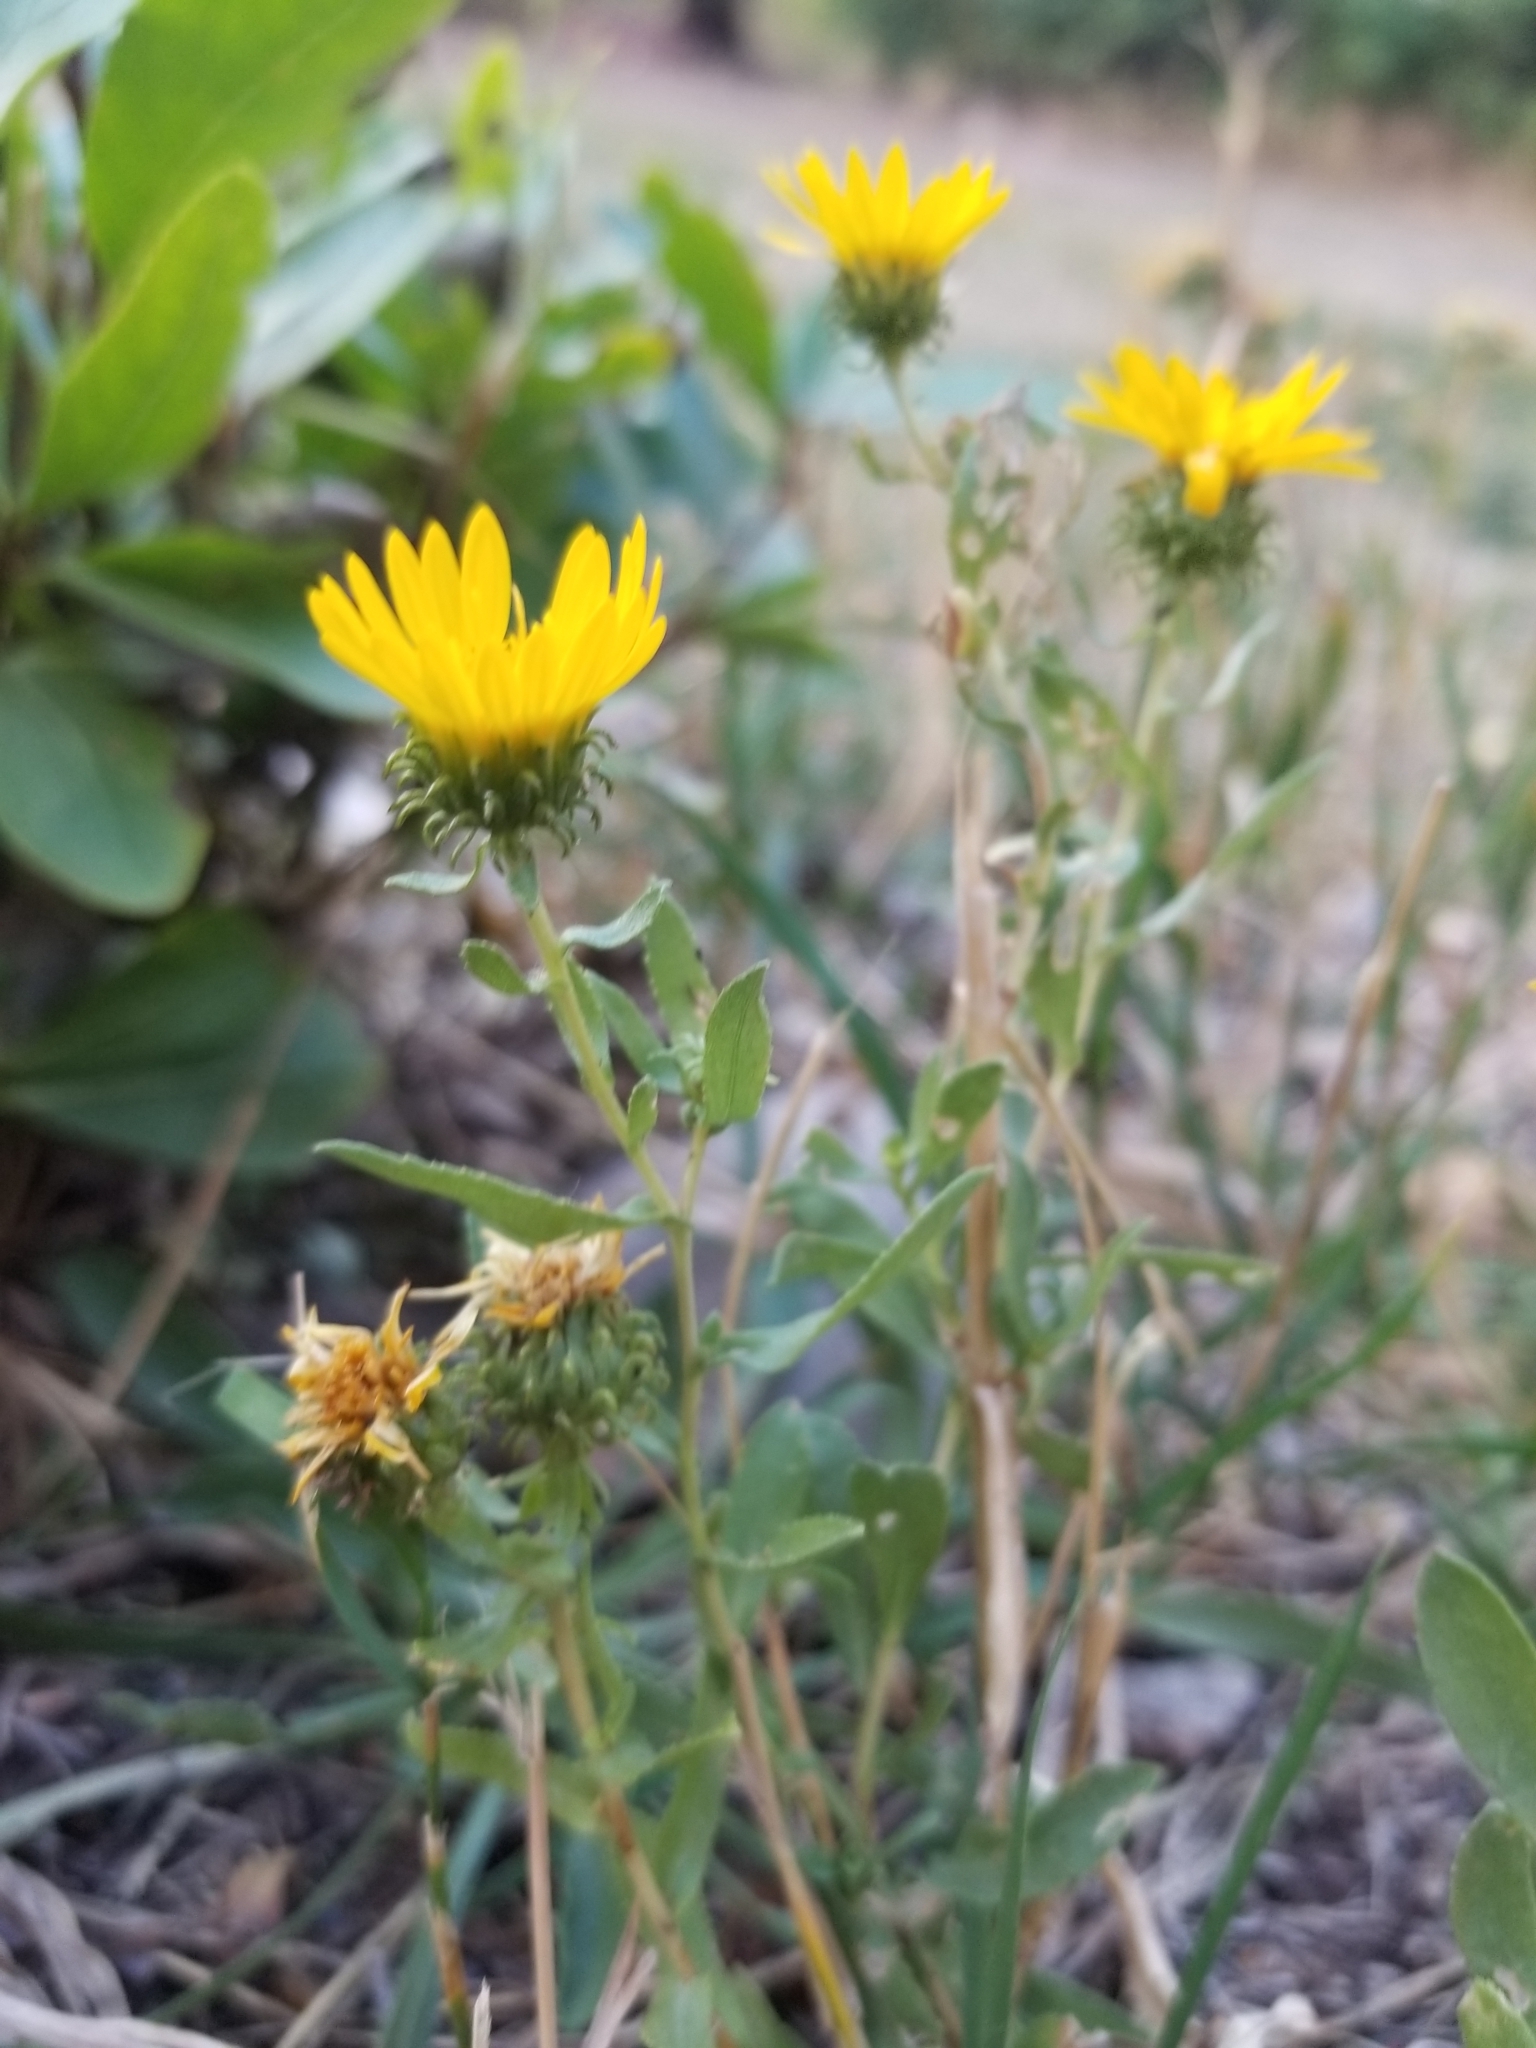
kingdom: Plantae
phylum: Tracheophyta
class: Magnoliopsida
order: Asterales
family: Asteraceae
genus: Grindelia
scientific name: Grindelia squarrosa
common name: Curly-cup gumweed
